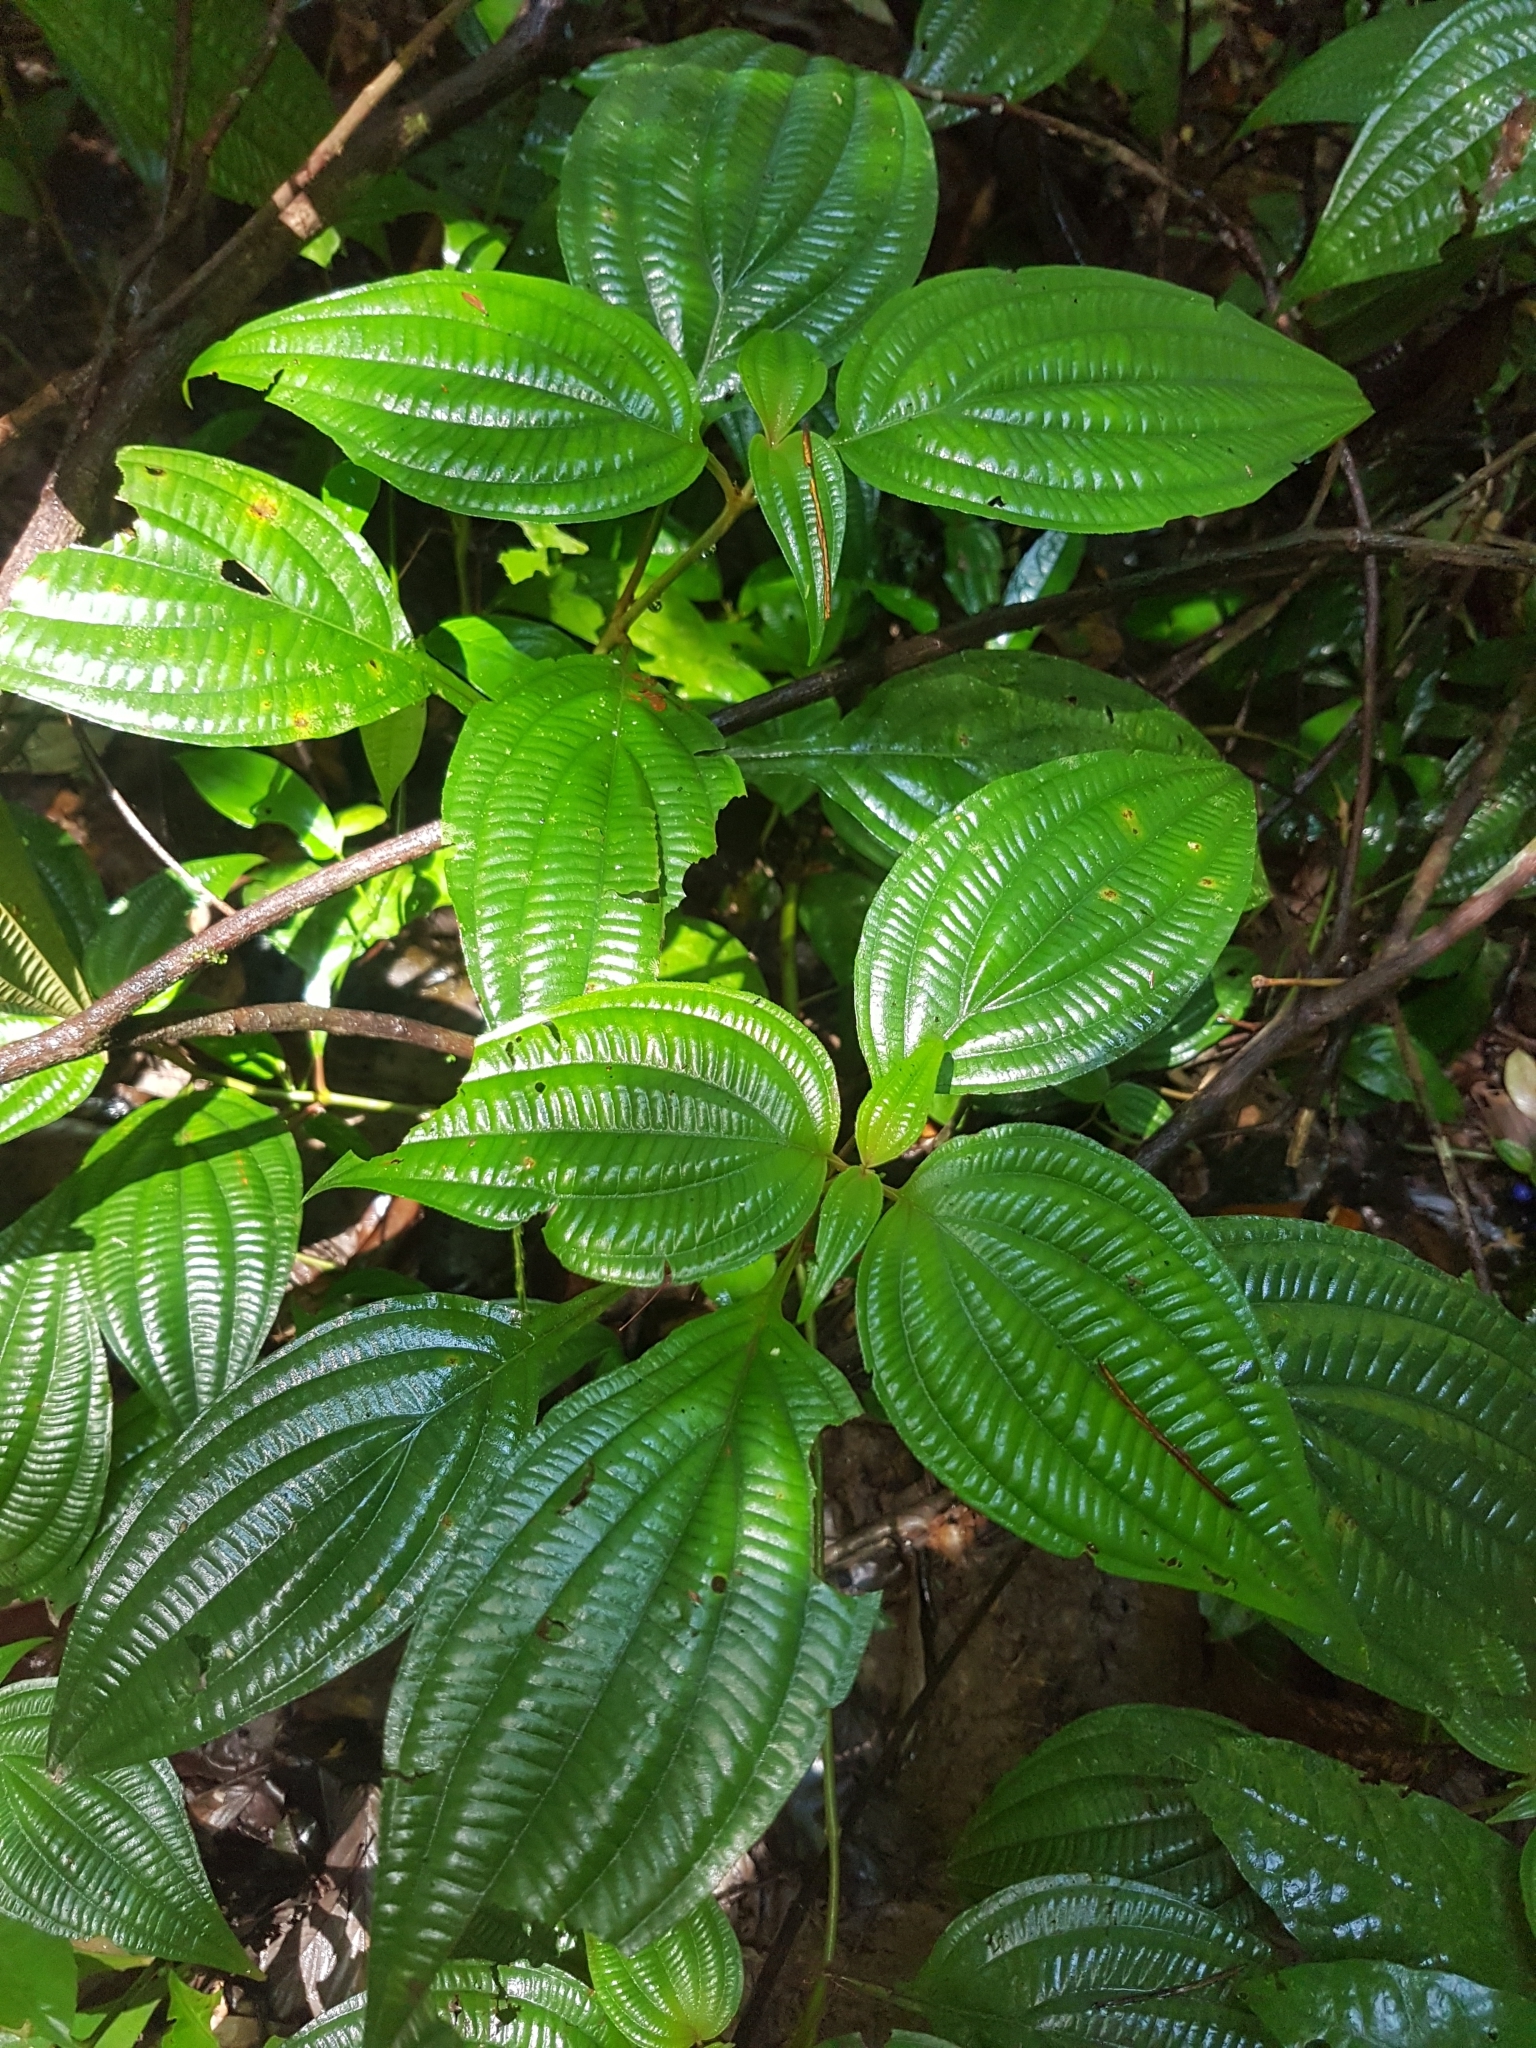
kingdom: Plantae
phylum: Tracheophyta
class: Magnoliopsida
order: Myrtales
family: Melastomataceae
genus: Miconia
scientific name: Miconia trichocalyx
